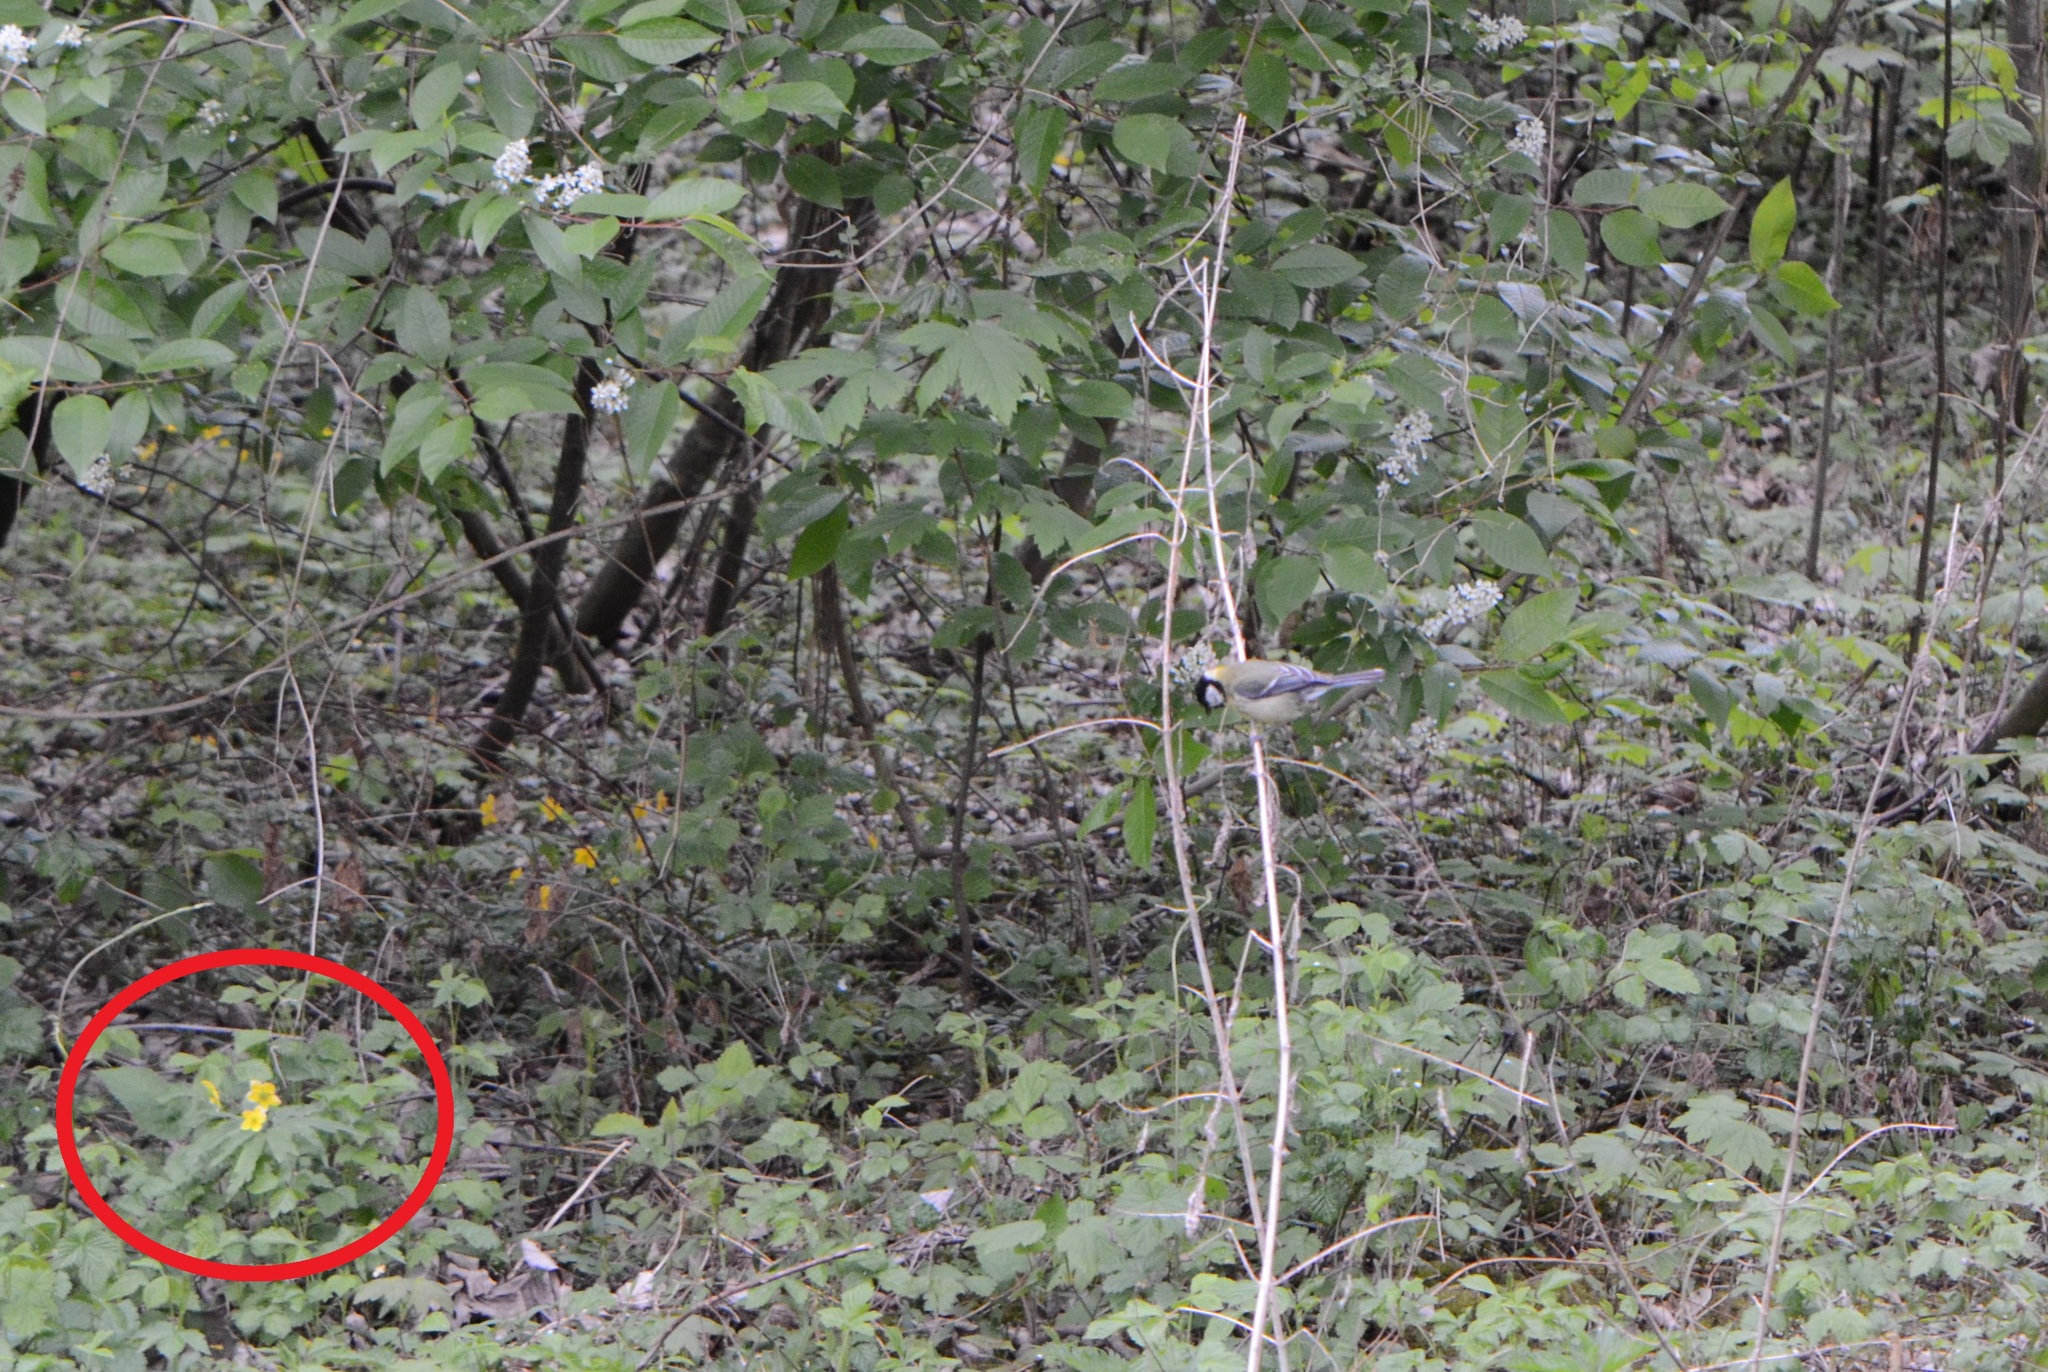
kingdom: Plantae
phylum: Tracheophyta
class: Magnoliopsida
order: Ranunculales
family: Ranunculaceae
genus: Anemone
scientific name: Anemone ranunculoides
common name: Yellow anemone
